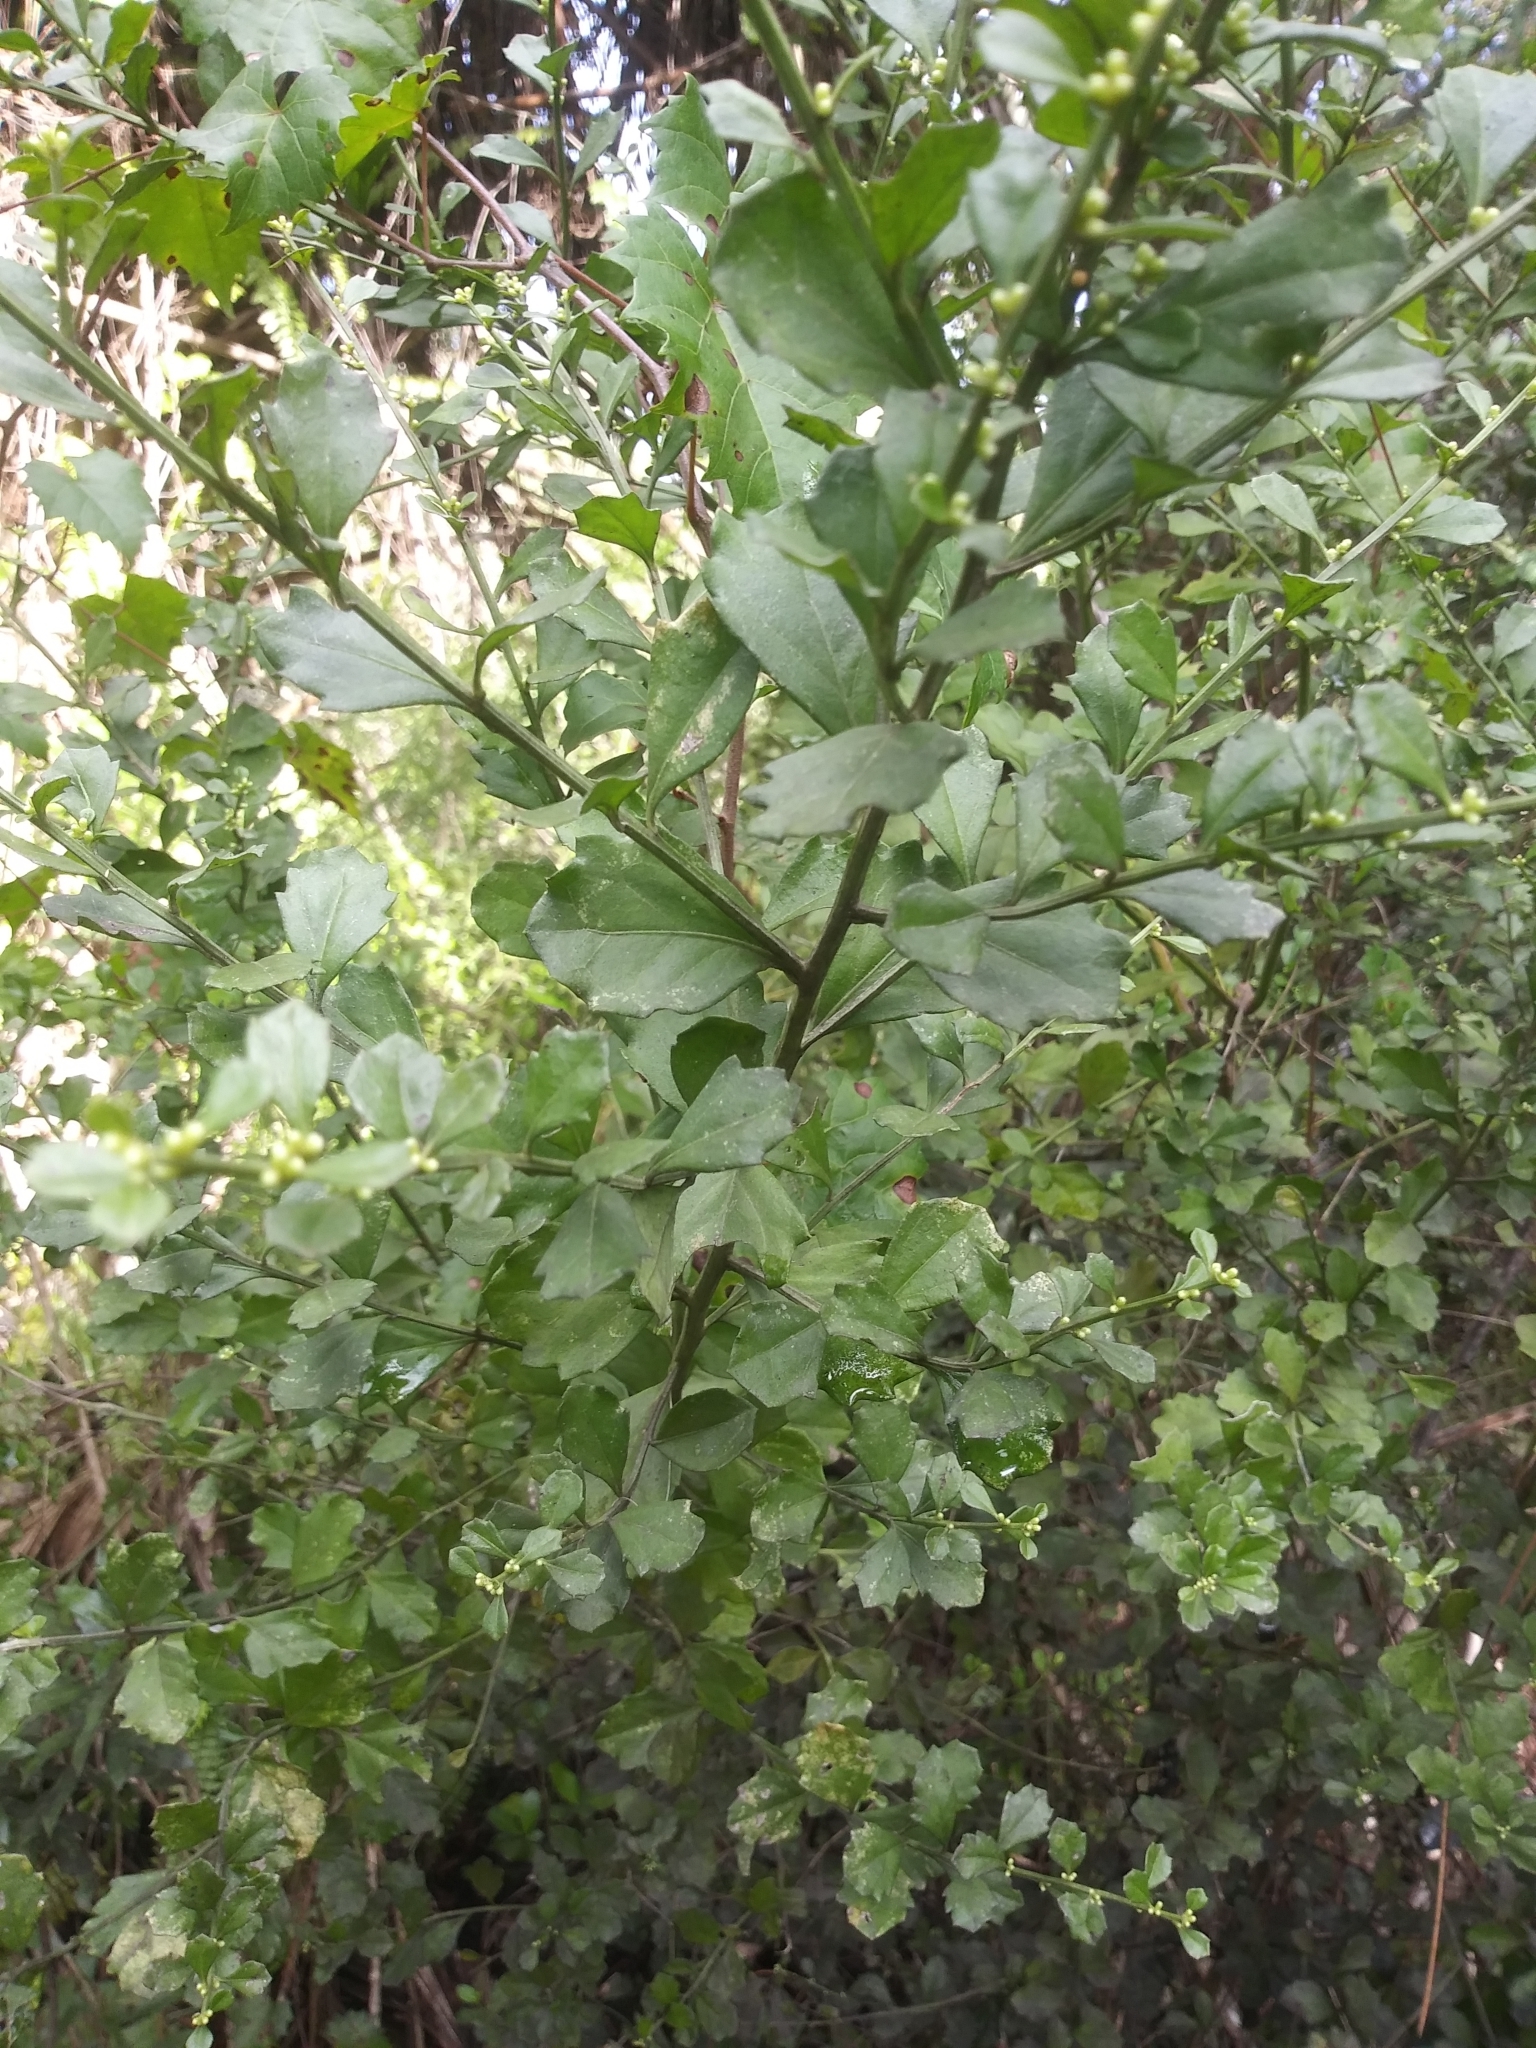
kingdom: Plantae
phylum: Tracheophyta
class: Magnoliopsida
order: Asterales
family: Asteraceae
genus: Baccharis
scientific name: Baccharis glomeruliflora
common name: Silverling groundsel bush
